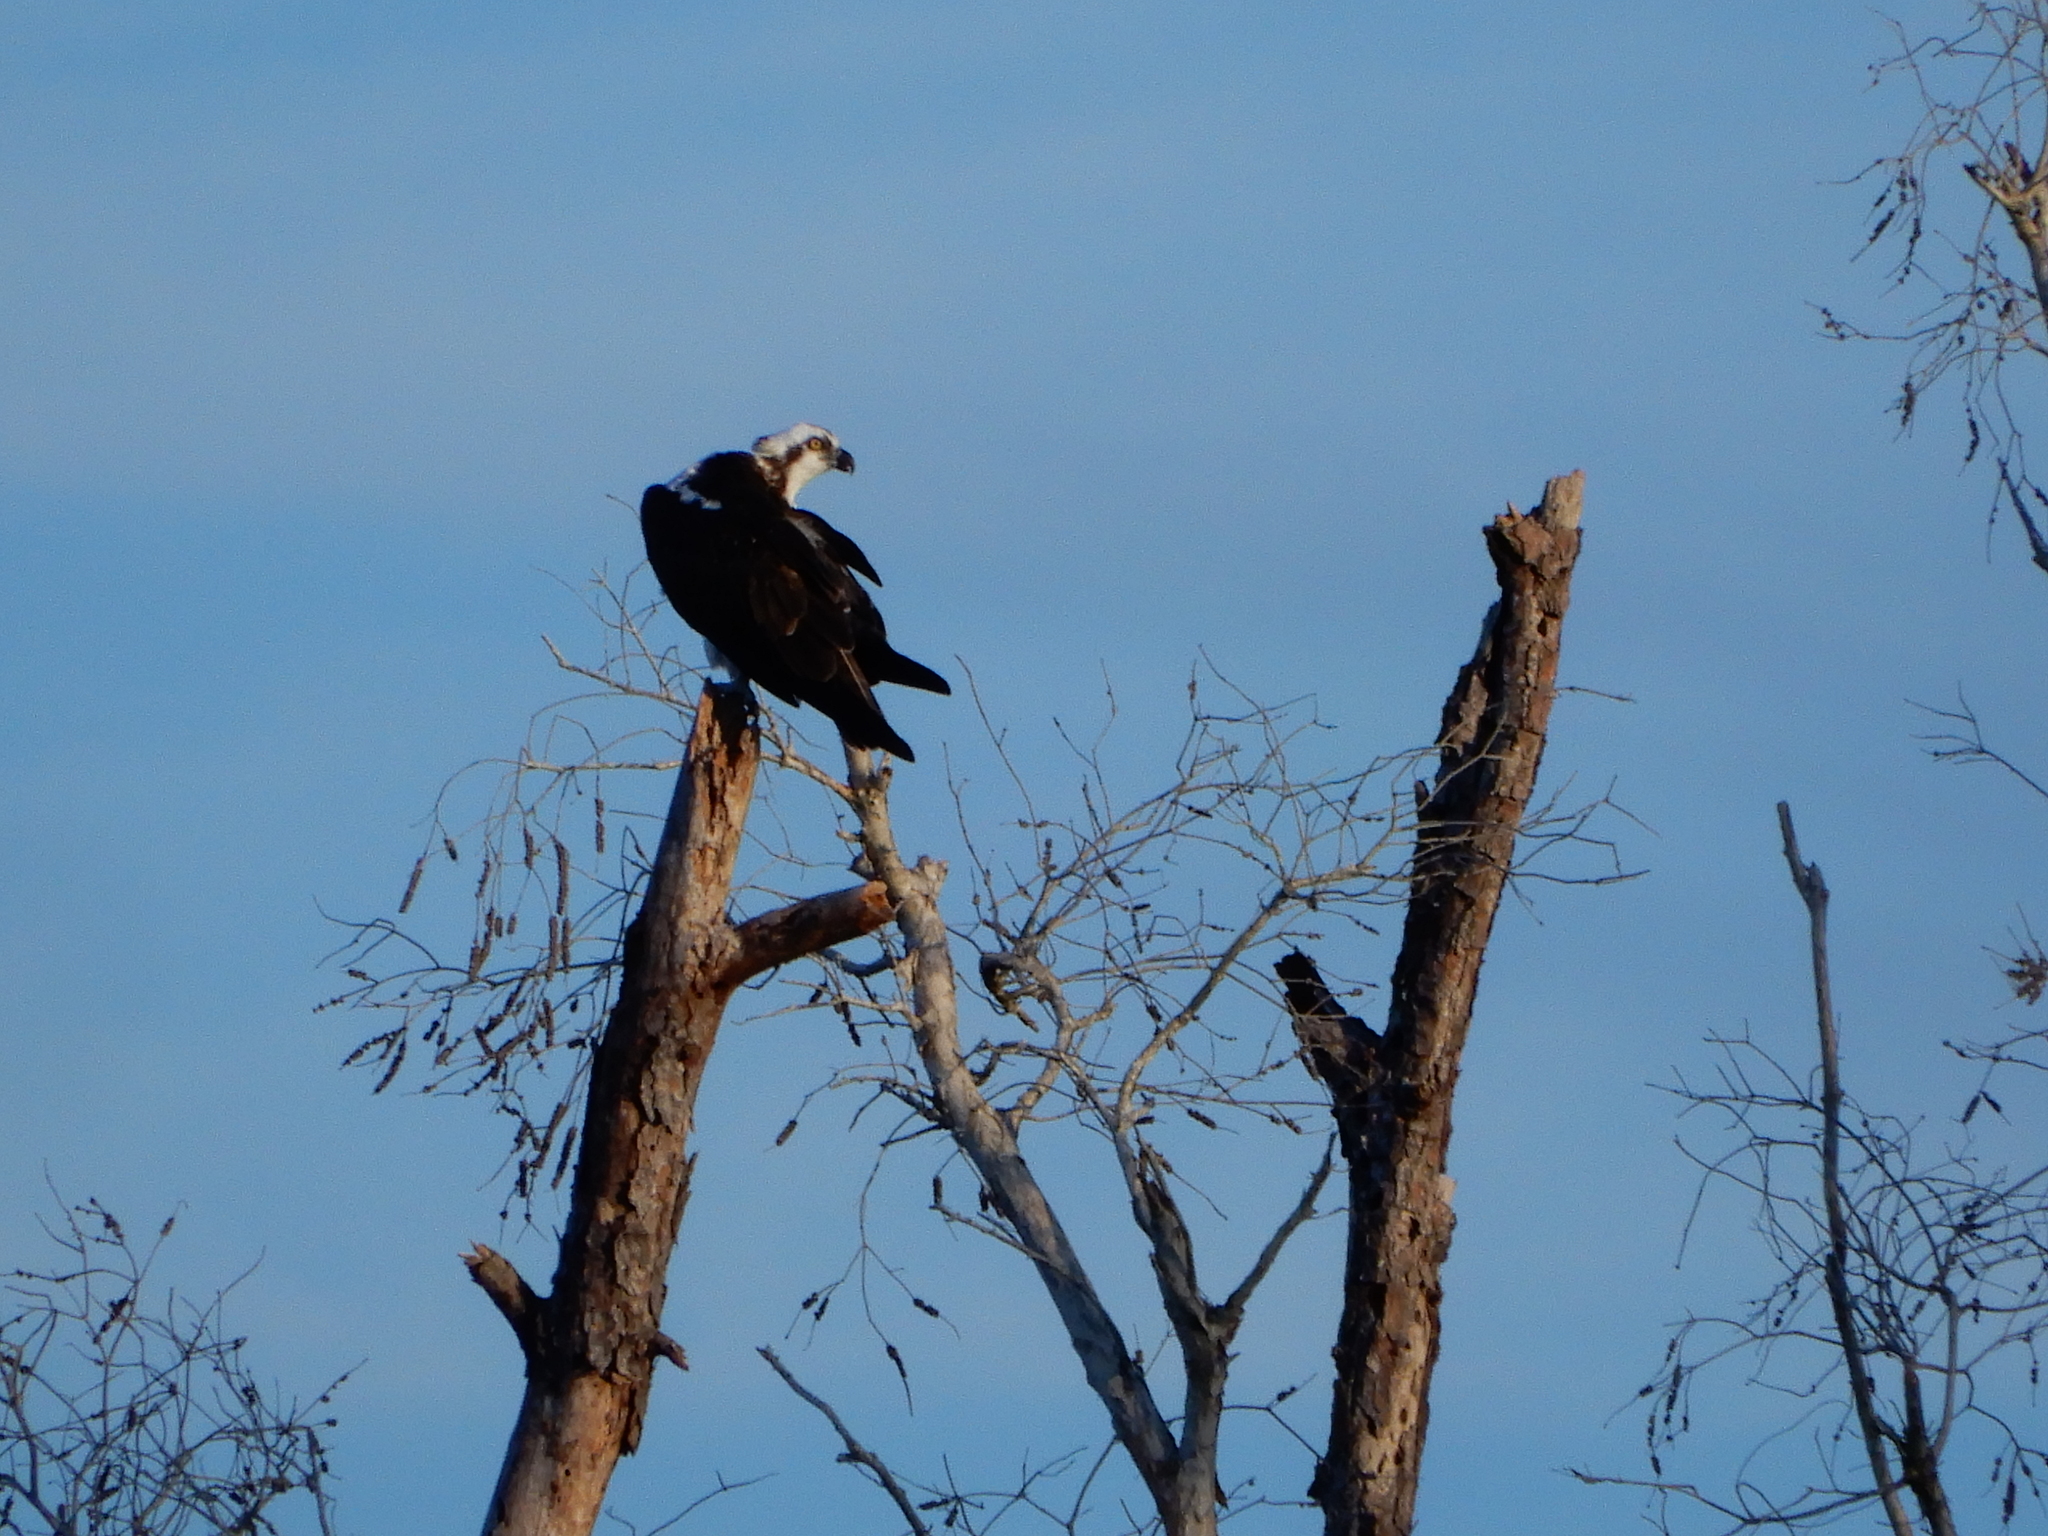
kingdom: Animalia
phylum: Chordata
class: Aves
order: Accipitriformes
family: Pandionidae
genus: Pandion
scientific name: Pandion haliaetus
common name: Osprey
